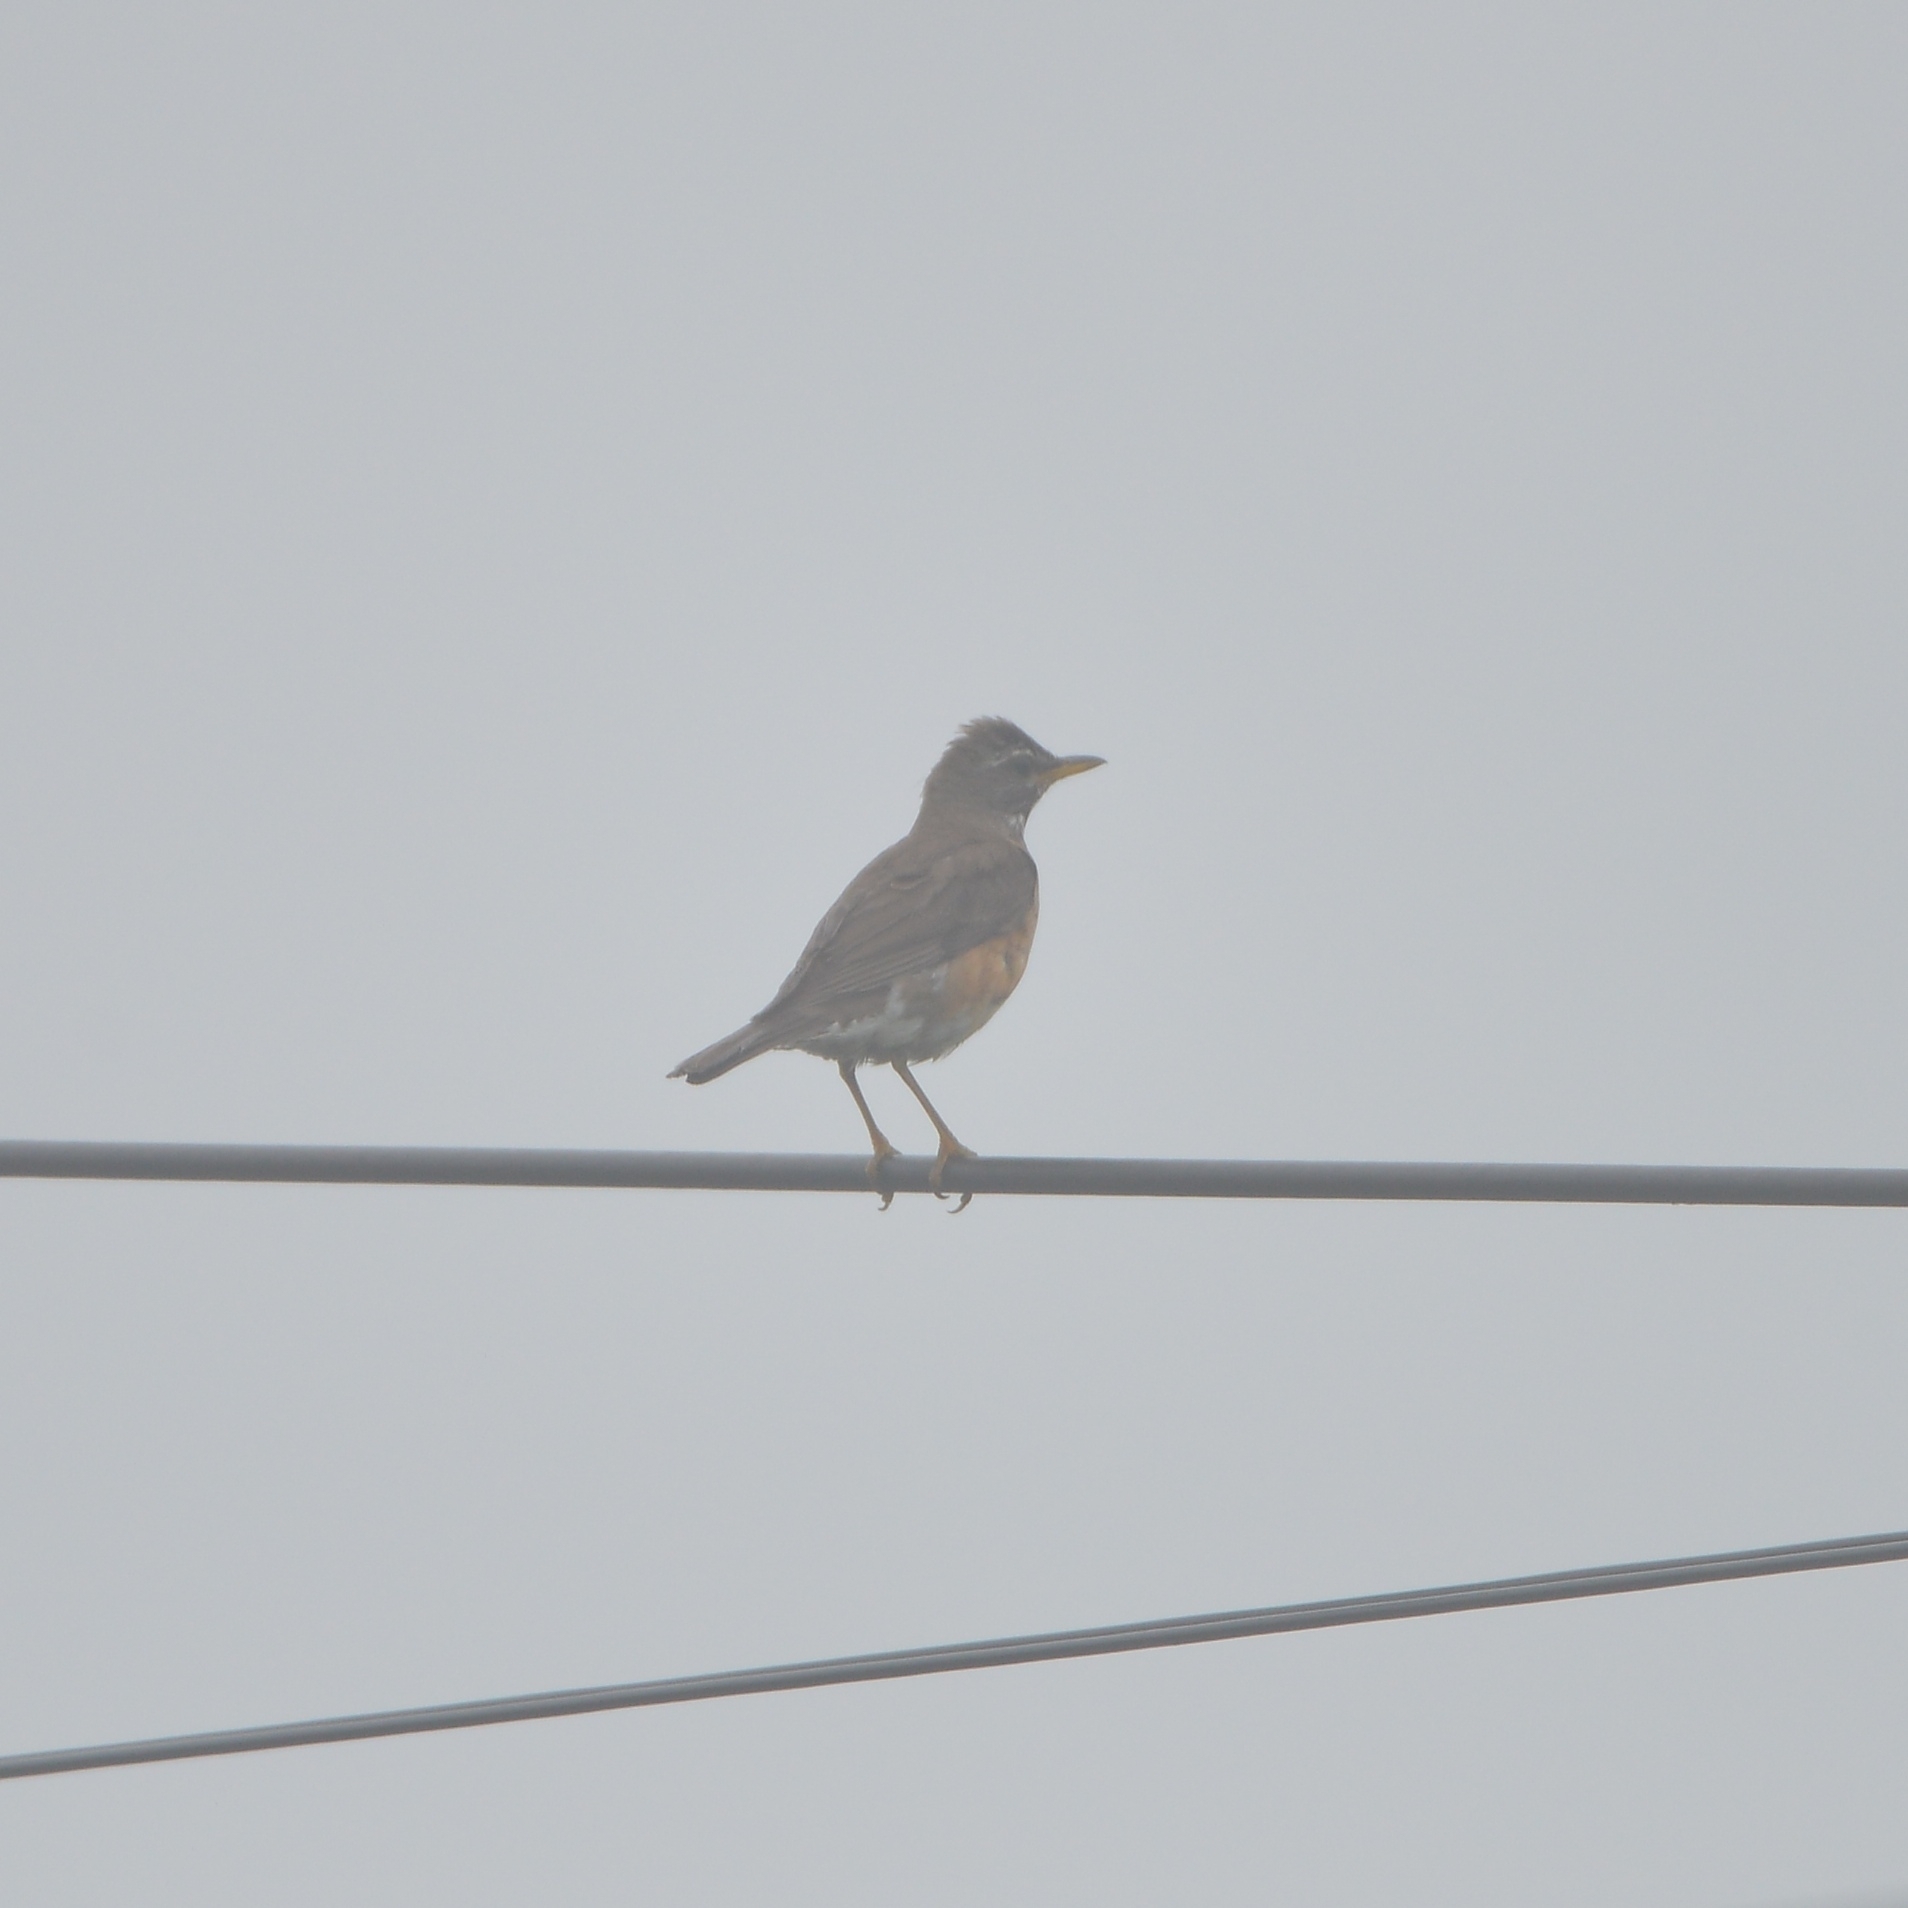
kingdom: Animalia
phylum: Chordata
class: Aves
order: Passeriformes
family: Turdidae
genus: Turdus
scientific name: Turdus obscurus
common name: Eyebrowed thrush
